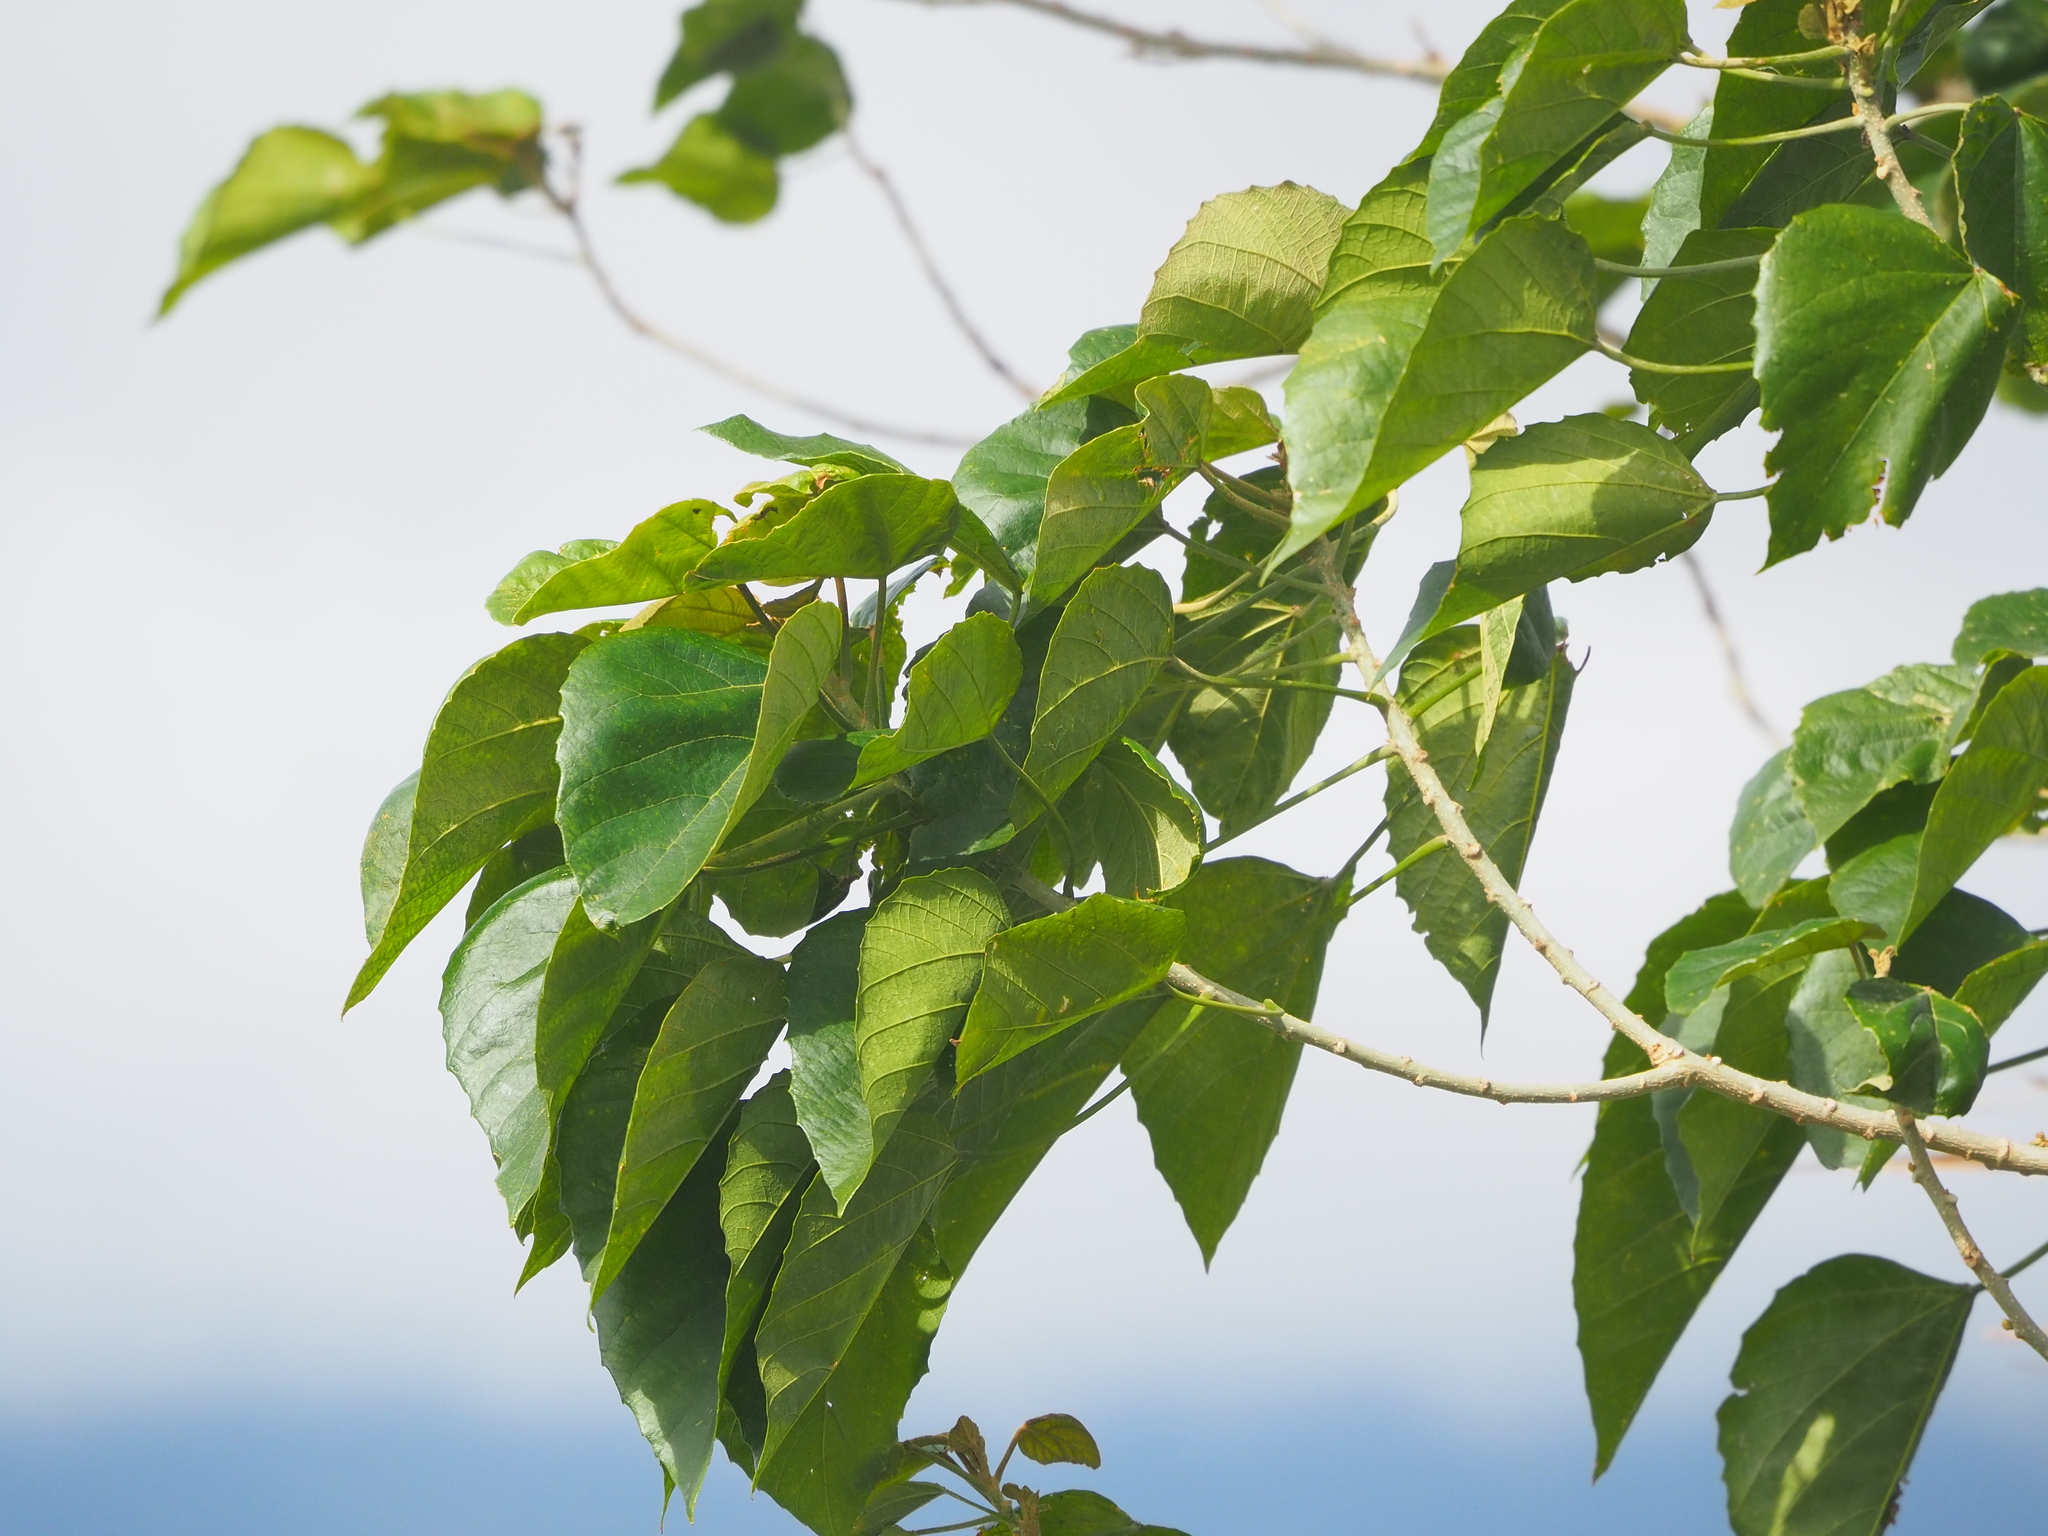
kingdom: Plantae
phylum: Tracheophyta
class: Magnoliopsida
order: Malpighiales
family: Euphorbiaceae
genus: Melanolepis
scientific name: Melanolepis multiglandulosa
